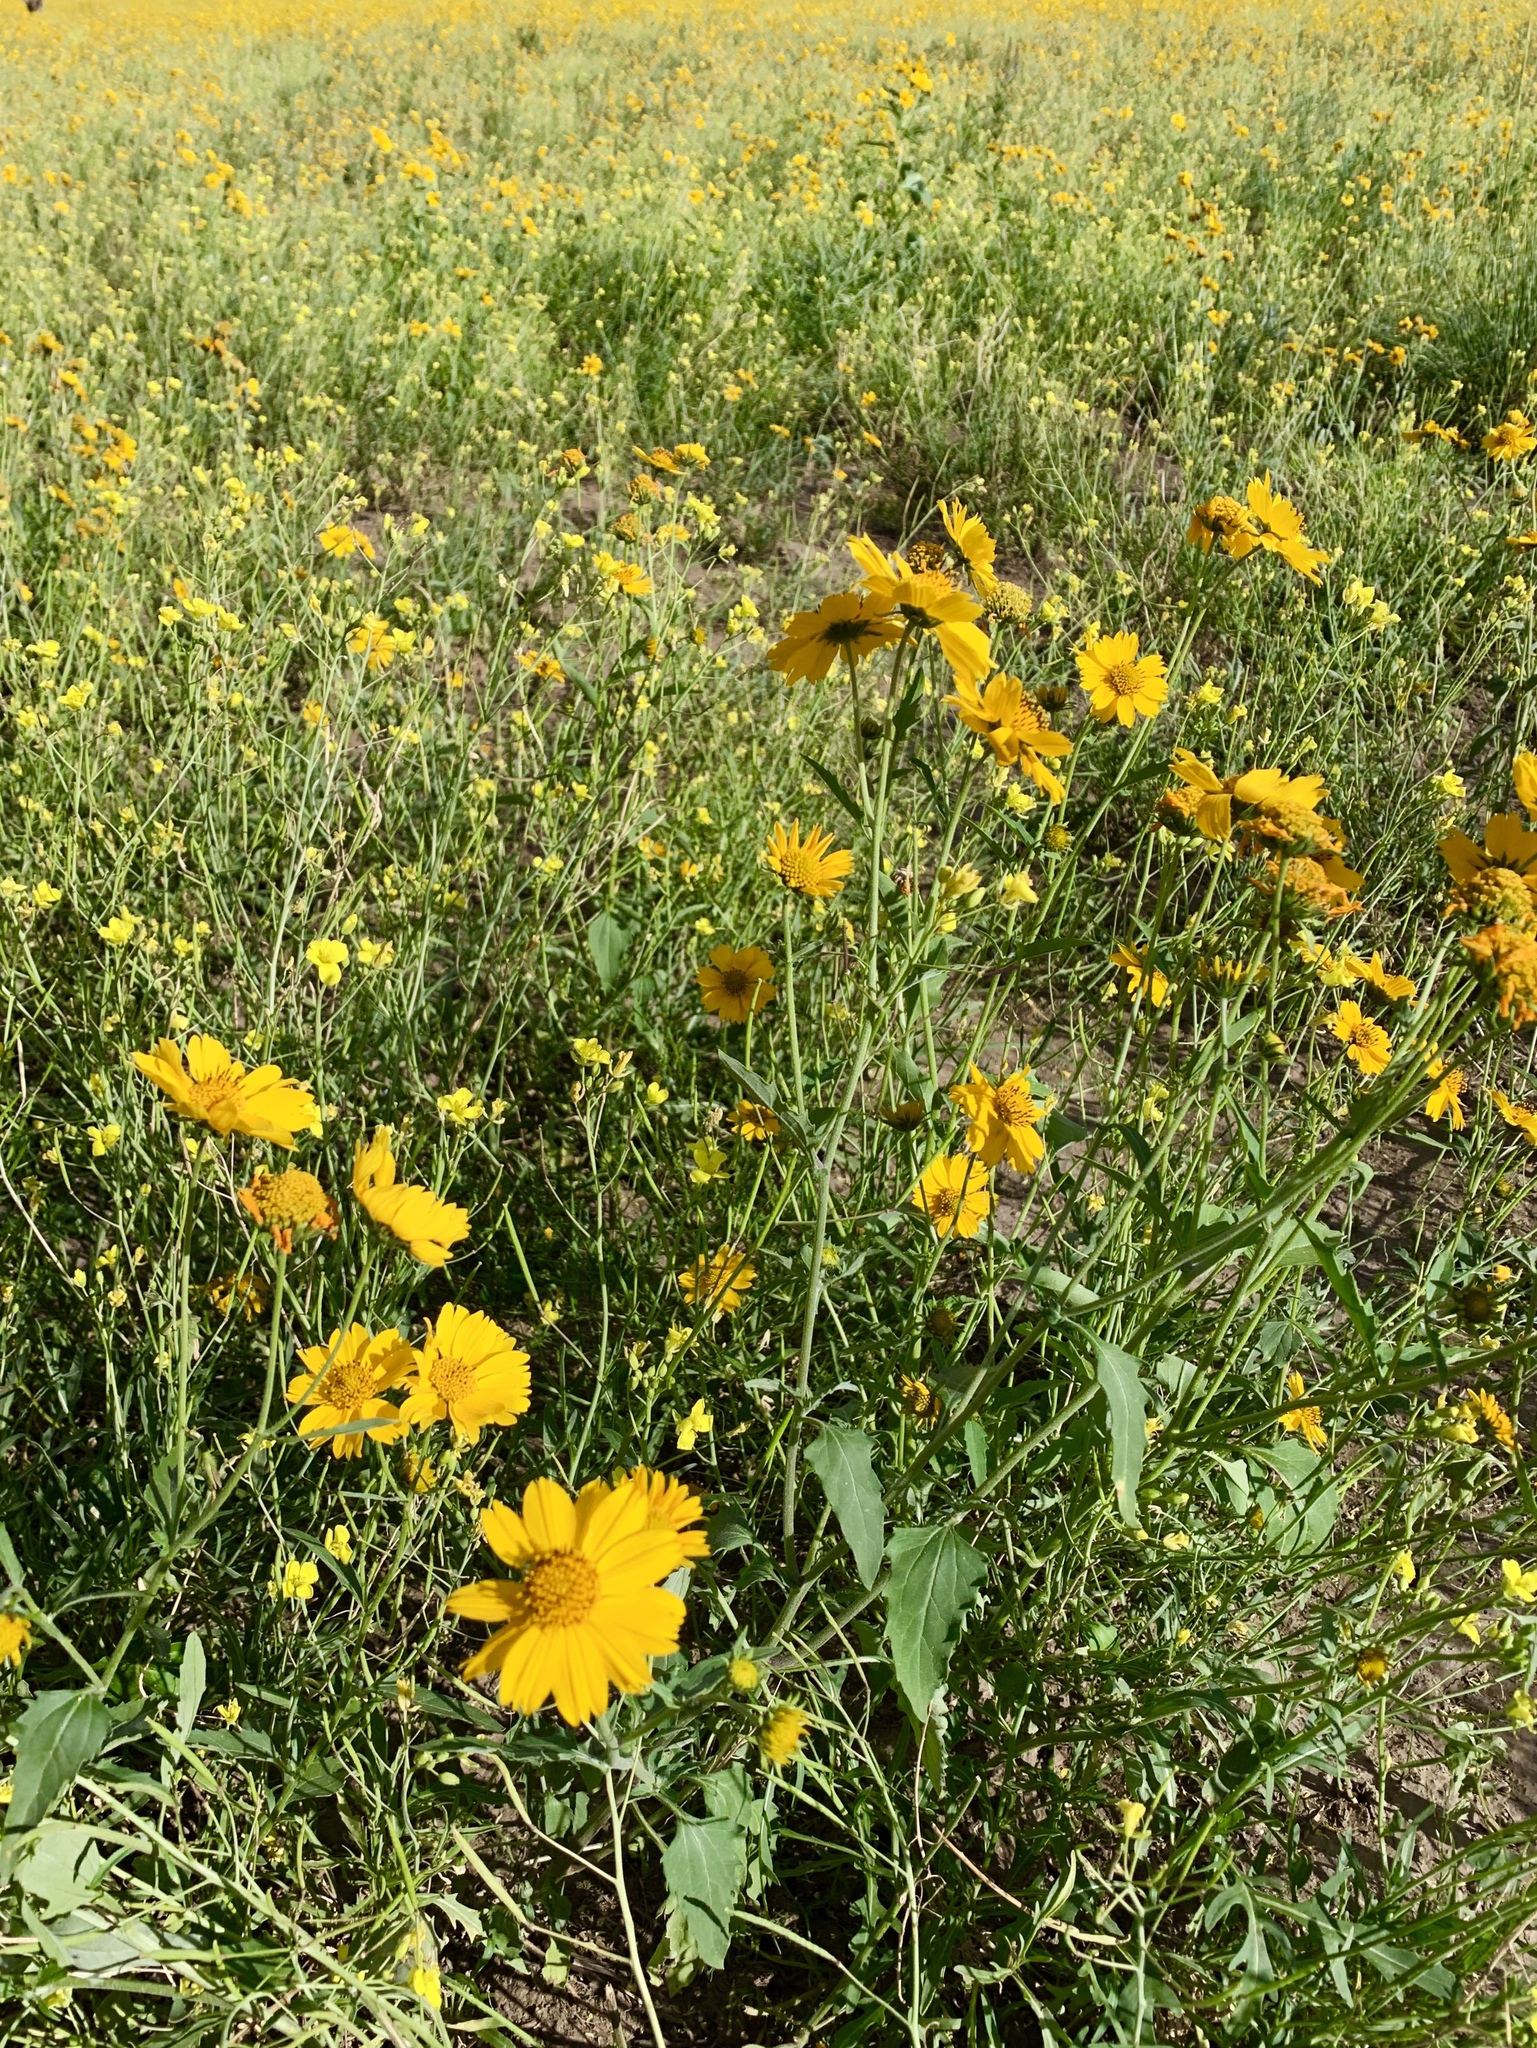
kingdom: Plantae
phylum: Tracheophyta
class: Magnoliopsida
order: Asterales
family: Asteraceae
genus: Verbesina
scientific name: Verbesina encelioides
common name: Golden crownbeard
